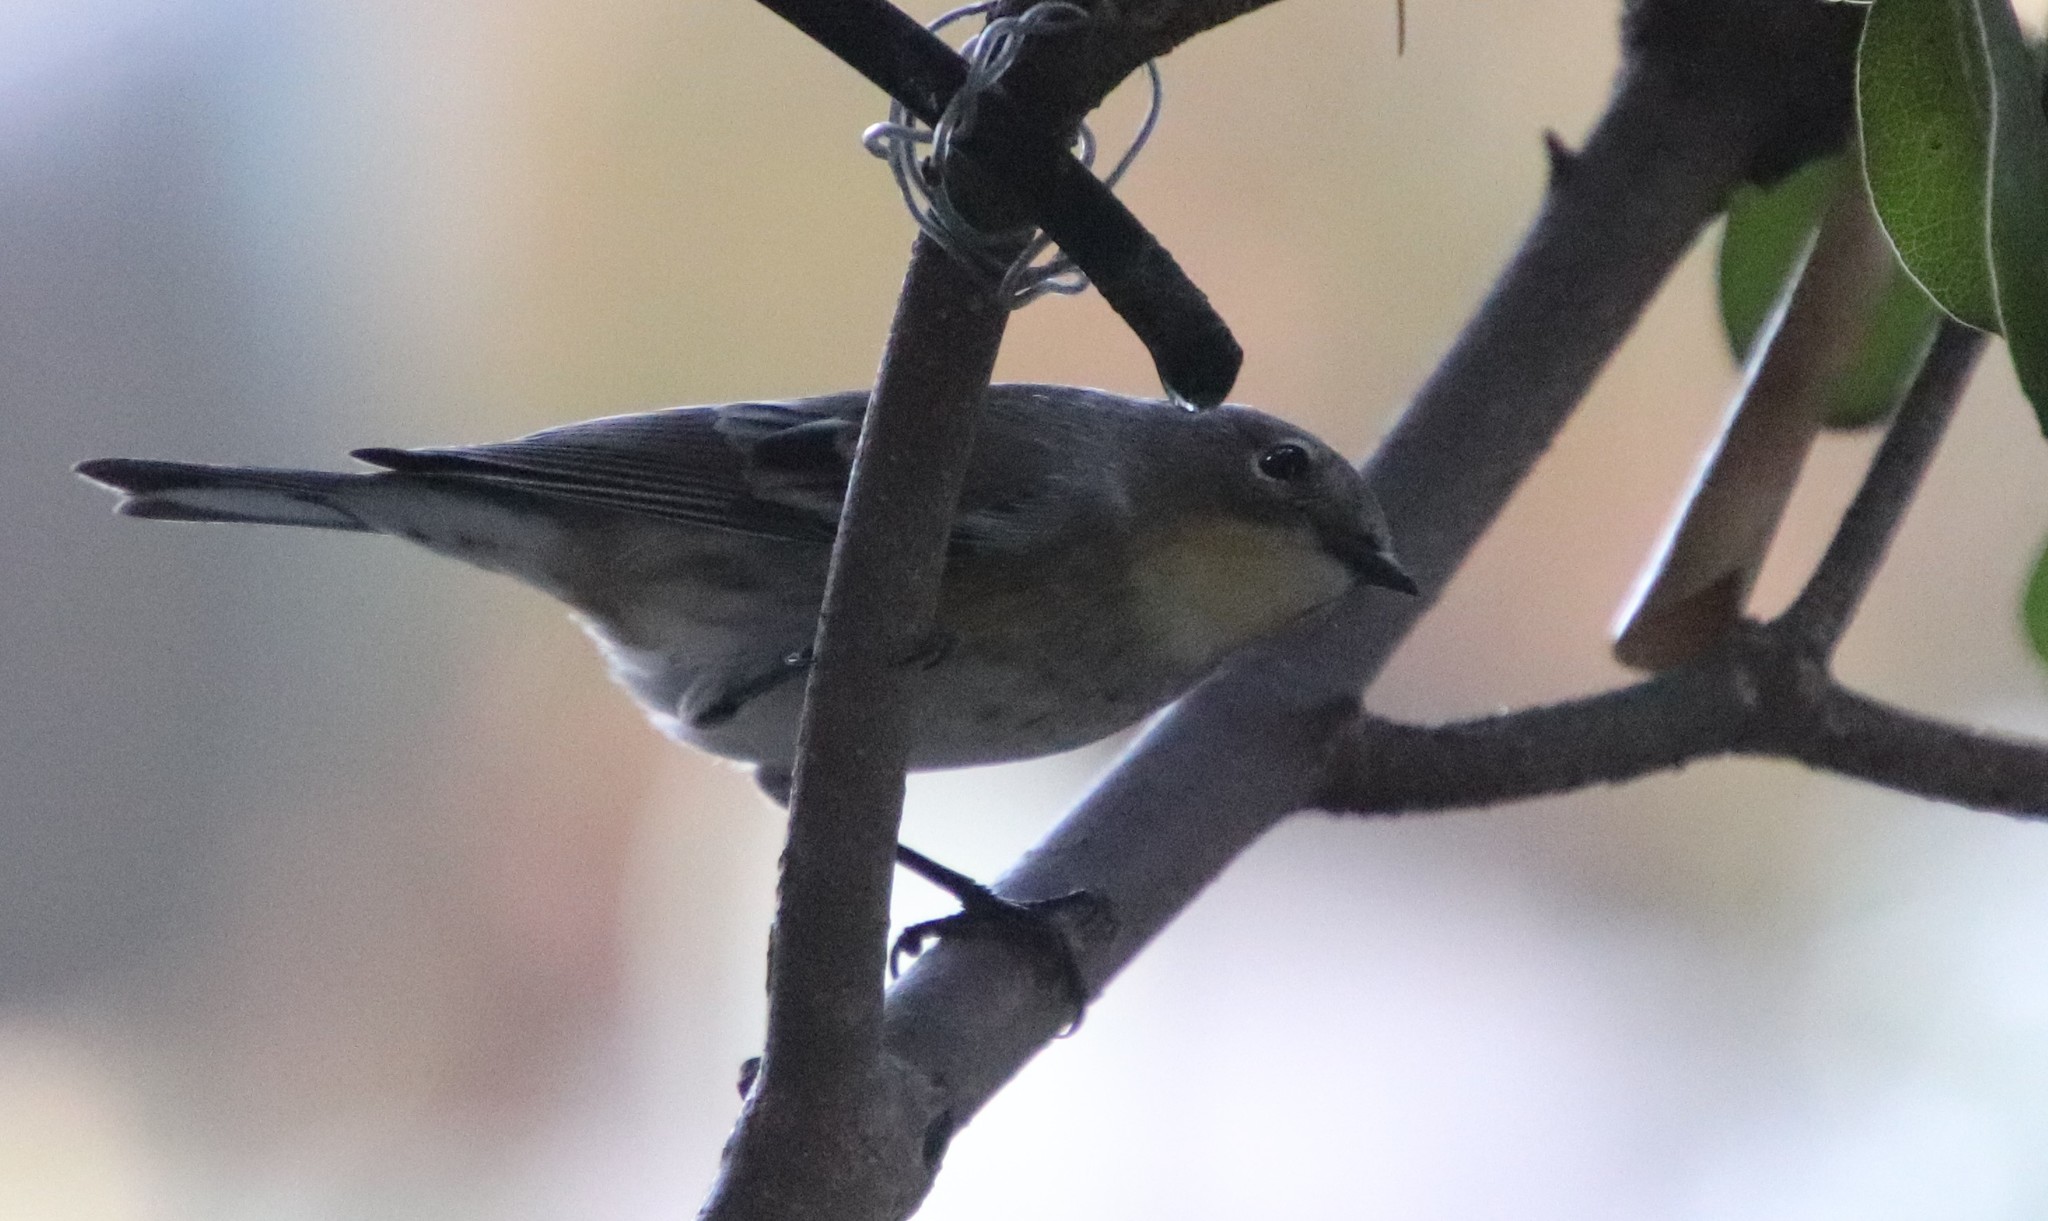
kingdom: Animalia
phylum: Chordata
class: Aves
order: Passeriformes
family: Parulidae
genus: Setophaga
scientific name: Setophaga auduboni
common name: Audubon's warbler
